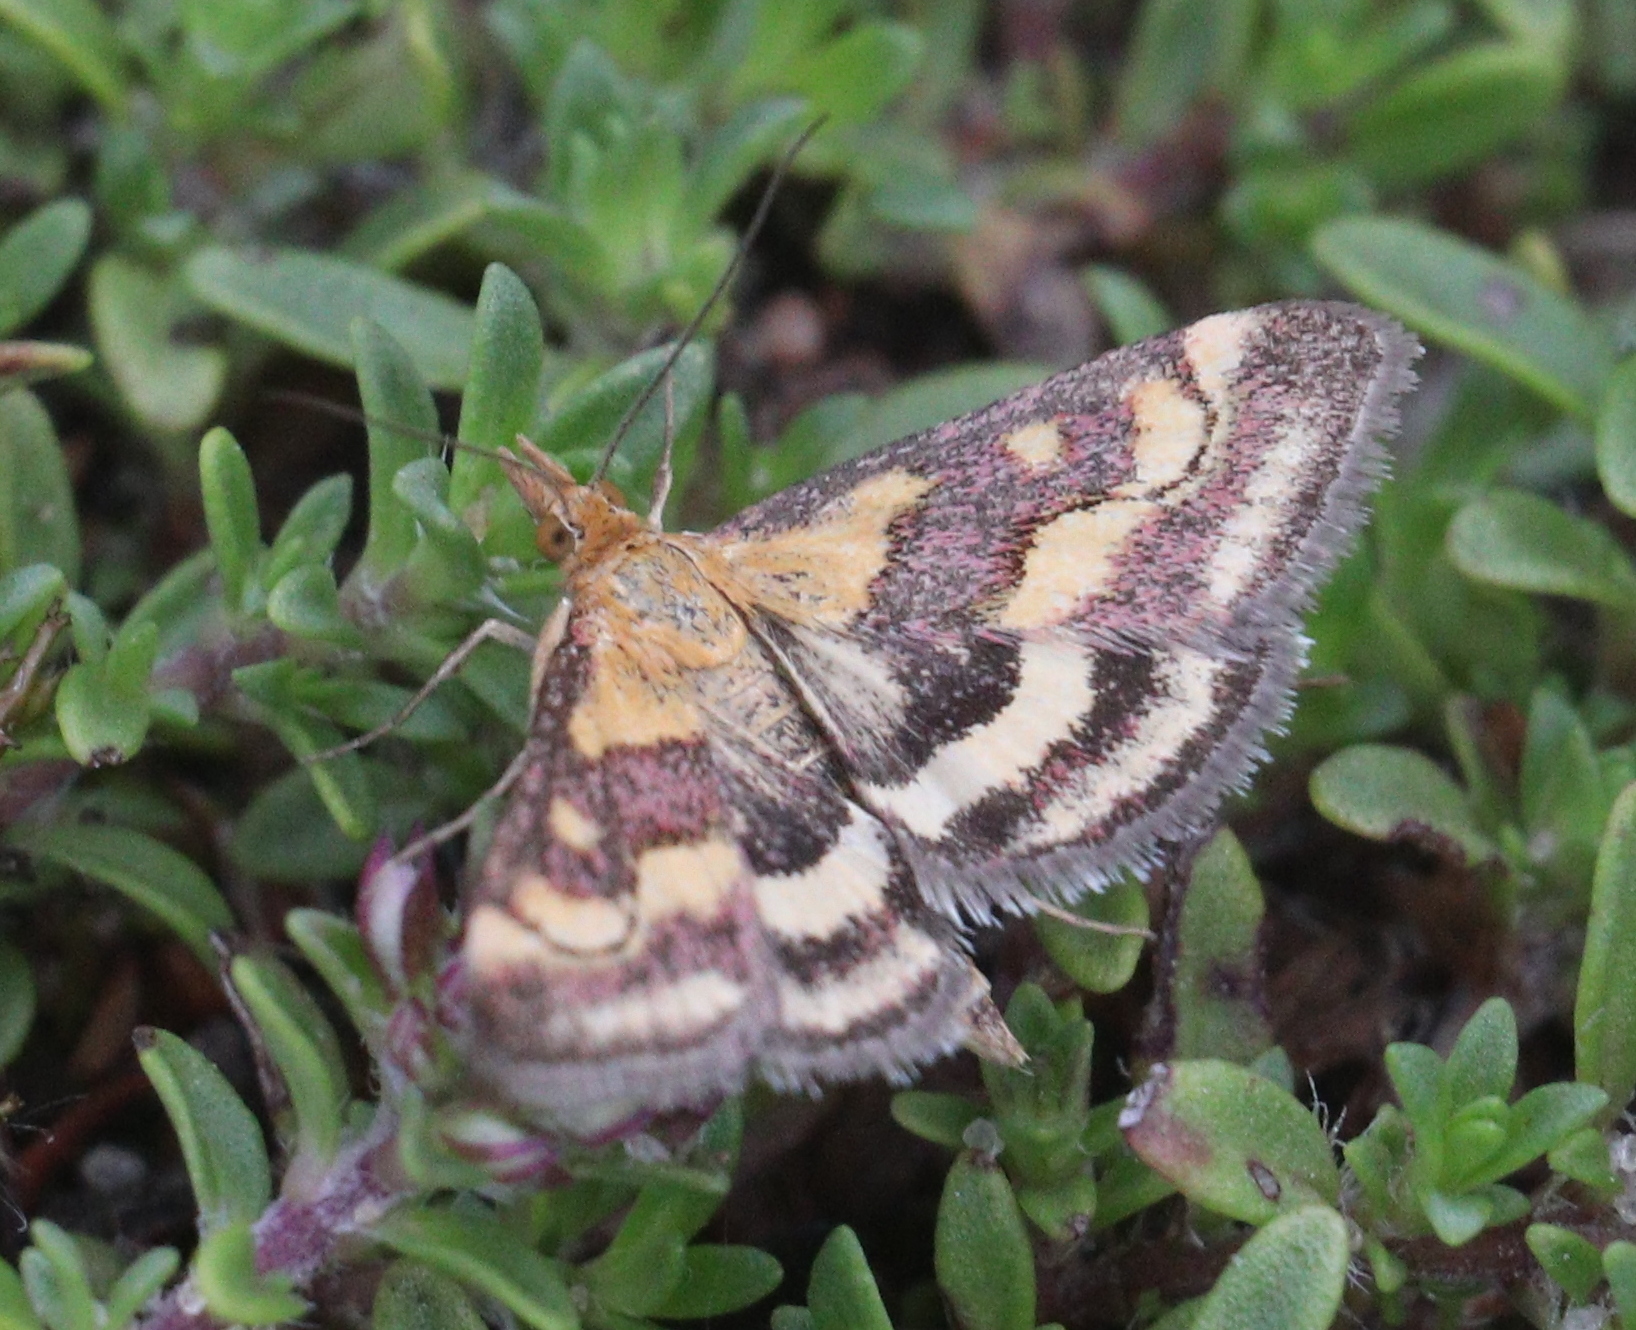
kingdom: Animalia
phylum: Arthropoda
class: Insecta
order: Lepidoptera
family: Crambidae
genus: Pyrausta
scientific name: Pyrausta ostrinalis
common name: Scarce purple & gold
